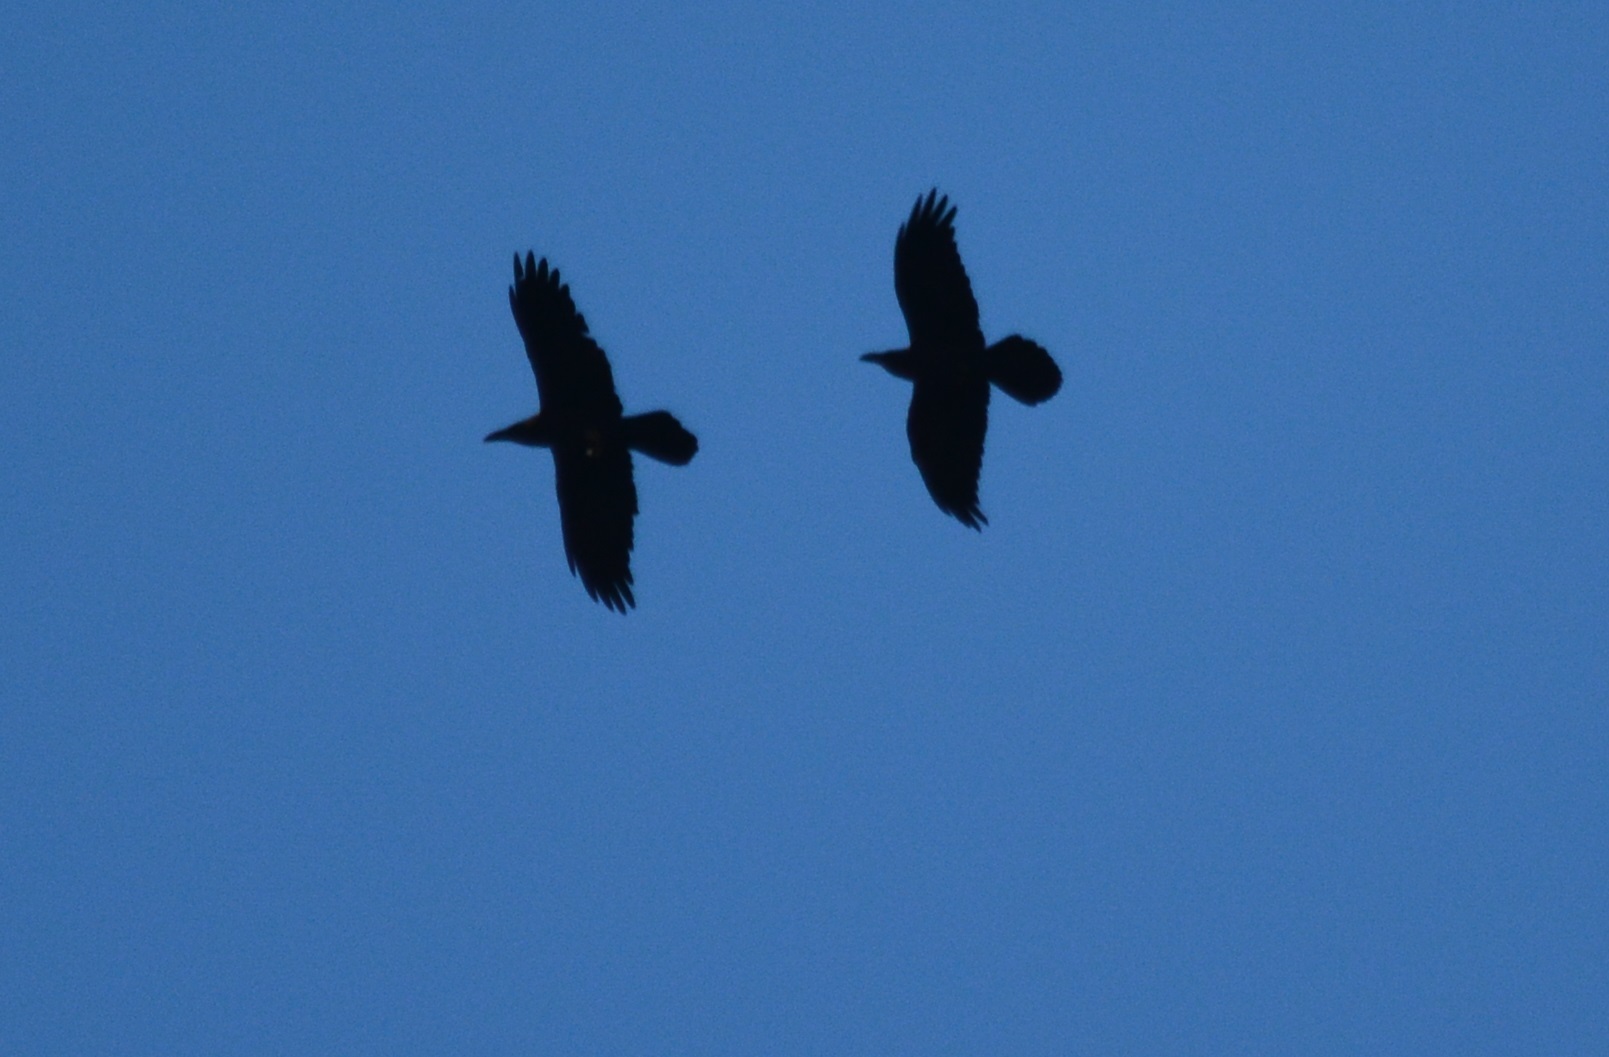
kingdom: Animalia
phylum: Chordata
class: Aves
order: Passeriformes
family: Corvidae
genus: Corvus
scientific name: Corvus ruficollis
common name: Brown-necked raven
